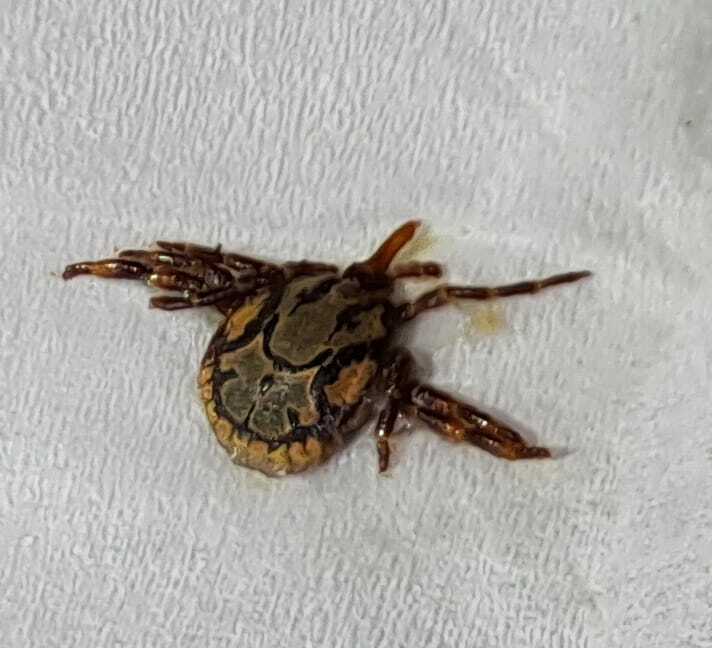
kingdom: Animalia
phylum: Arthropoda
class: Arachnida
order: Ixodida
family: Ixodidae
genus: Amblyomma
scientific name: Amblyomma hebraeum
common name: Bont tick
